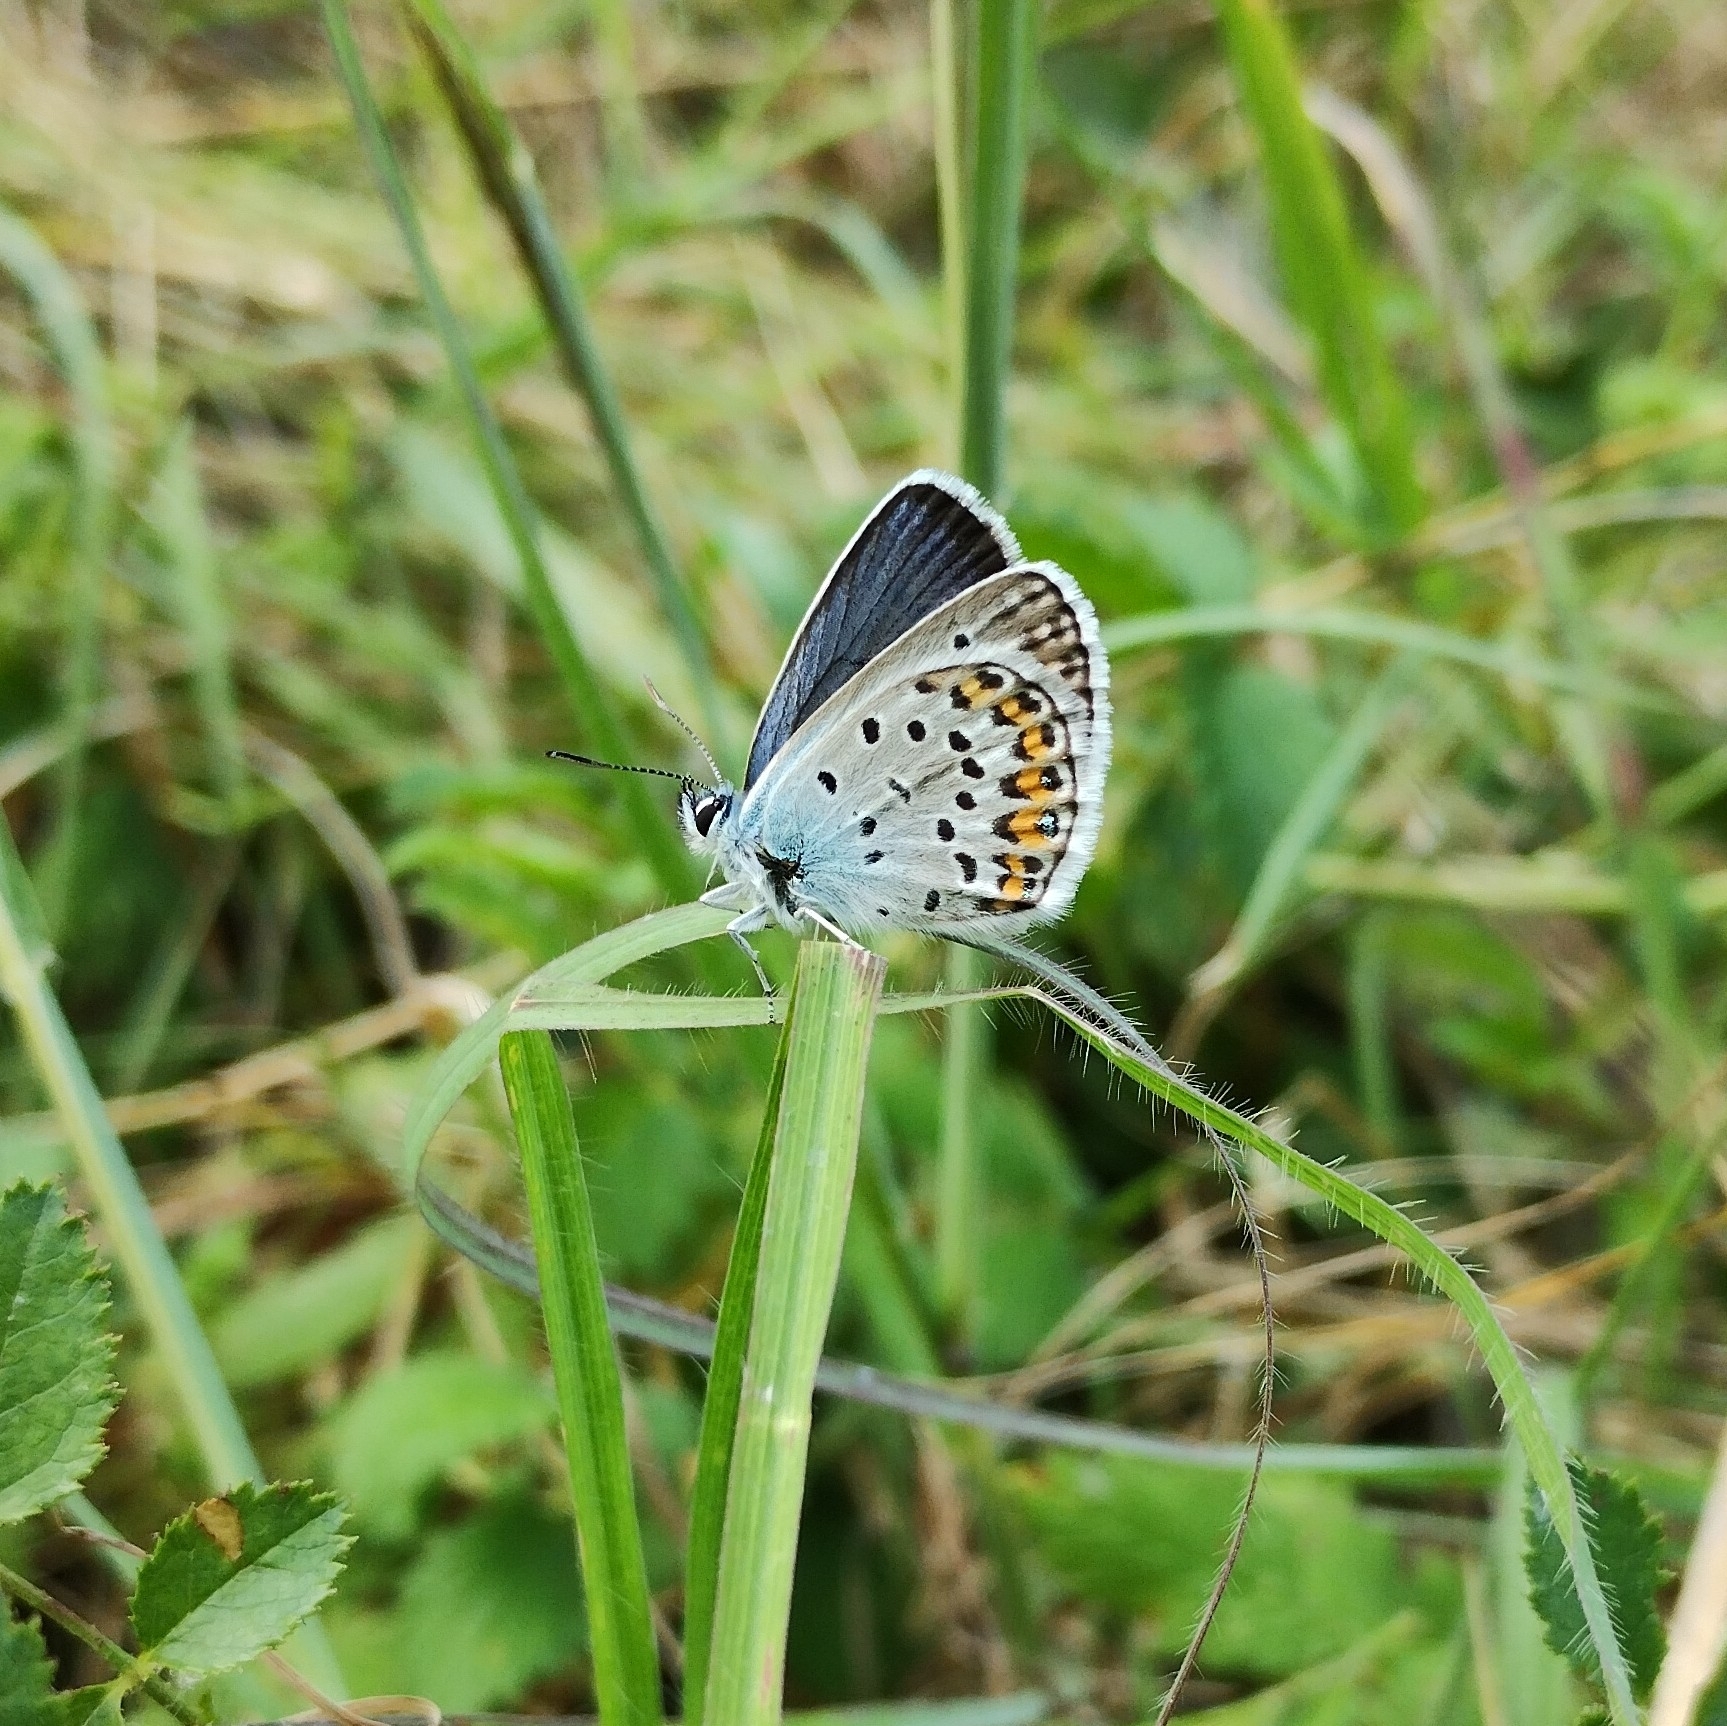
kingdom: Animalia
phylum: Arthropoda
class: Insecta
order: Lepidoptera
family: Lycaenidae
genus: Plebejus
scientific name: Plebejus argus
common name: Silver-studded blue
